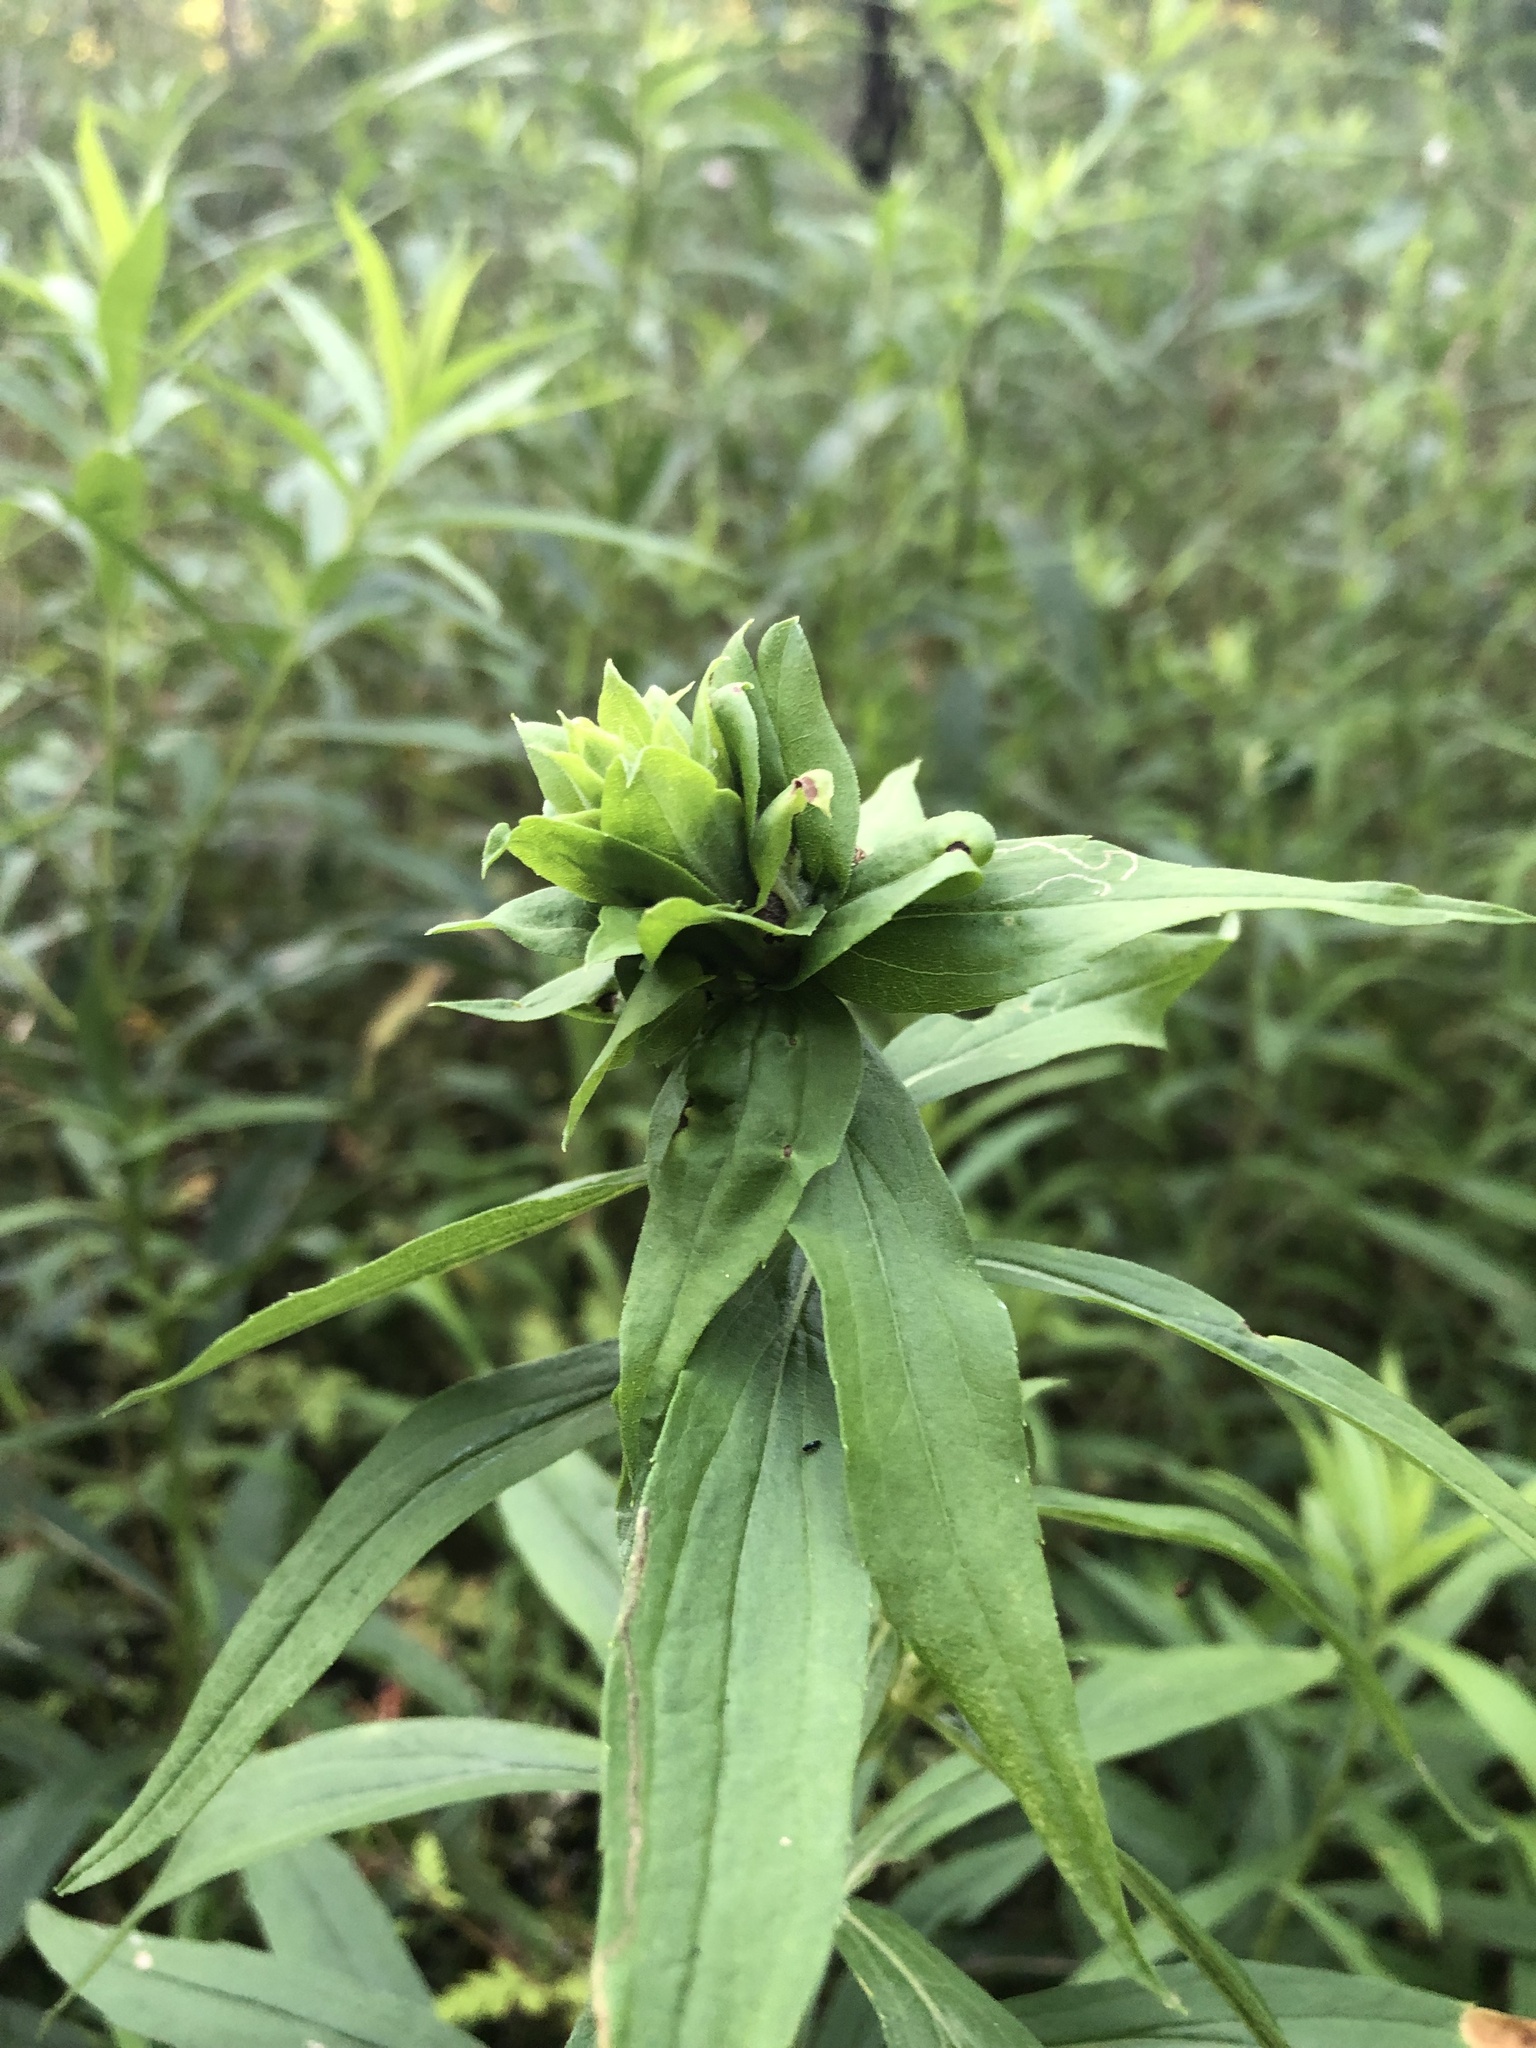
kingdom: Animalia
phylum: Arthropoda
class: Insecta
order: Diptera
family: Cecidomyiidae
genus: Rhopalomyia
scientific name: Rhopalomyia solidaginis
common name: Goldenrod bunch gall midge
